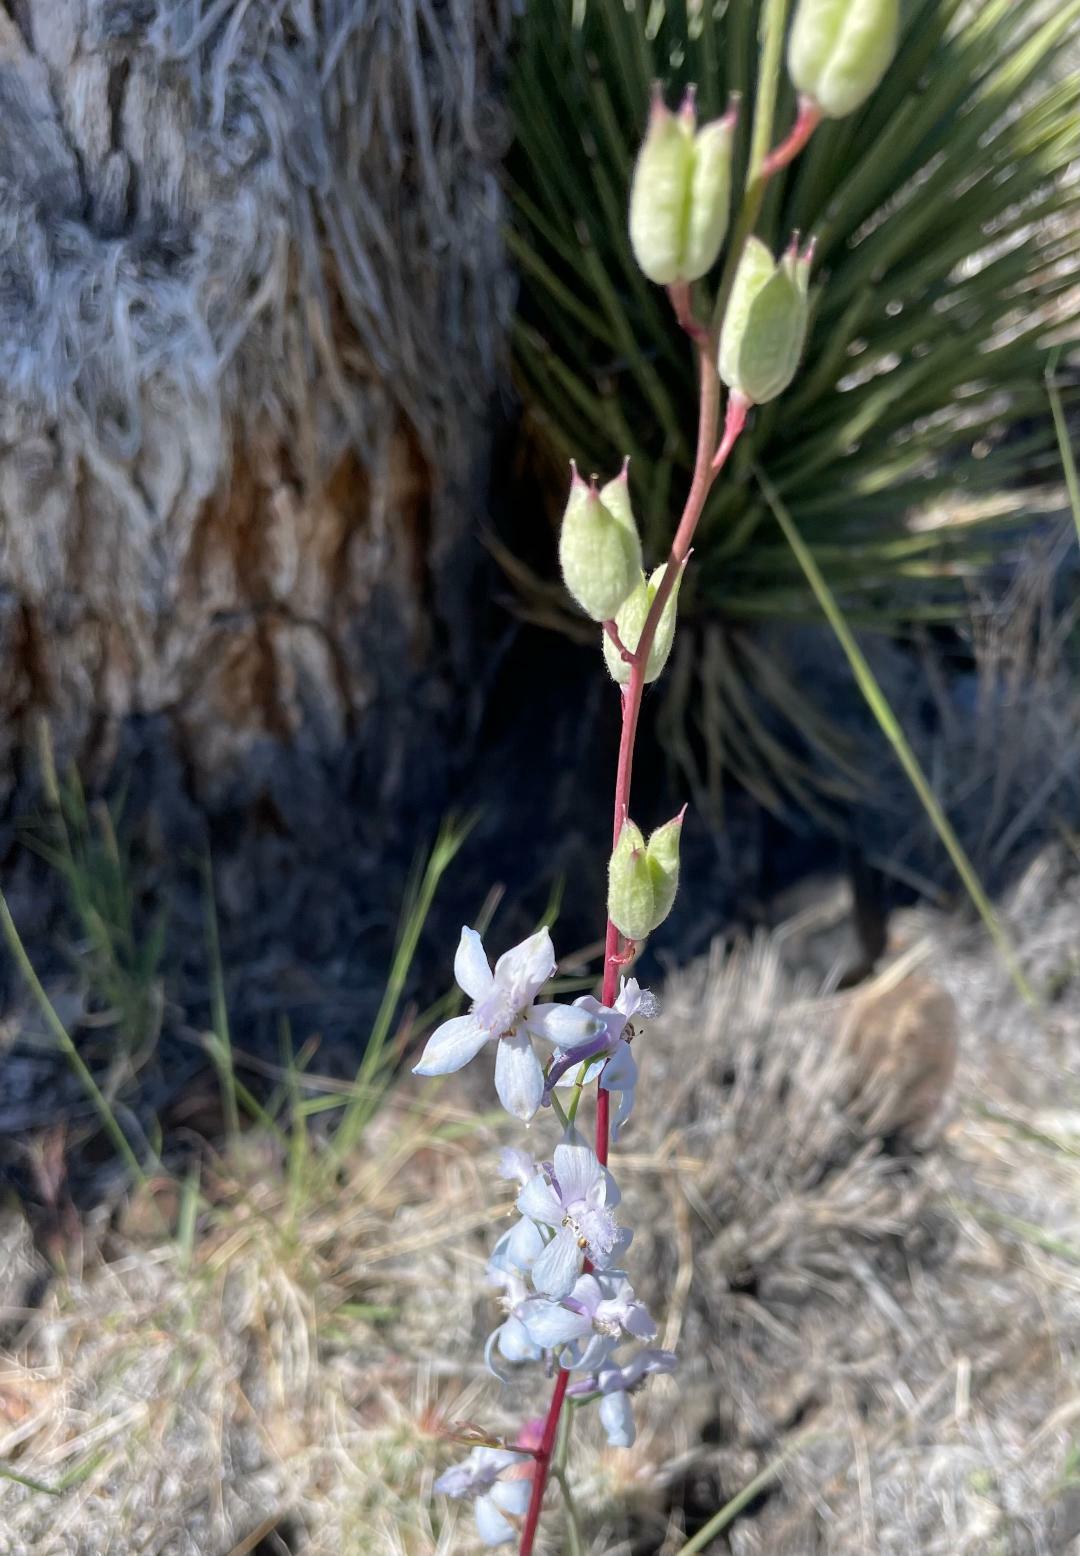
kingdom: Plantae
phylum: Tracheophyta
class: Magnoliopsida
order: Ranunculales
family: Ranunculaceae
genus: Delphinium
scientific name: Delphinium parishii
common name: Apache larkspur
